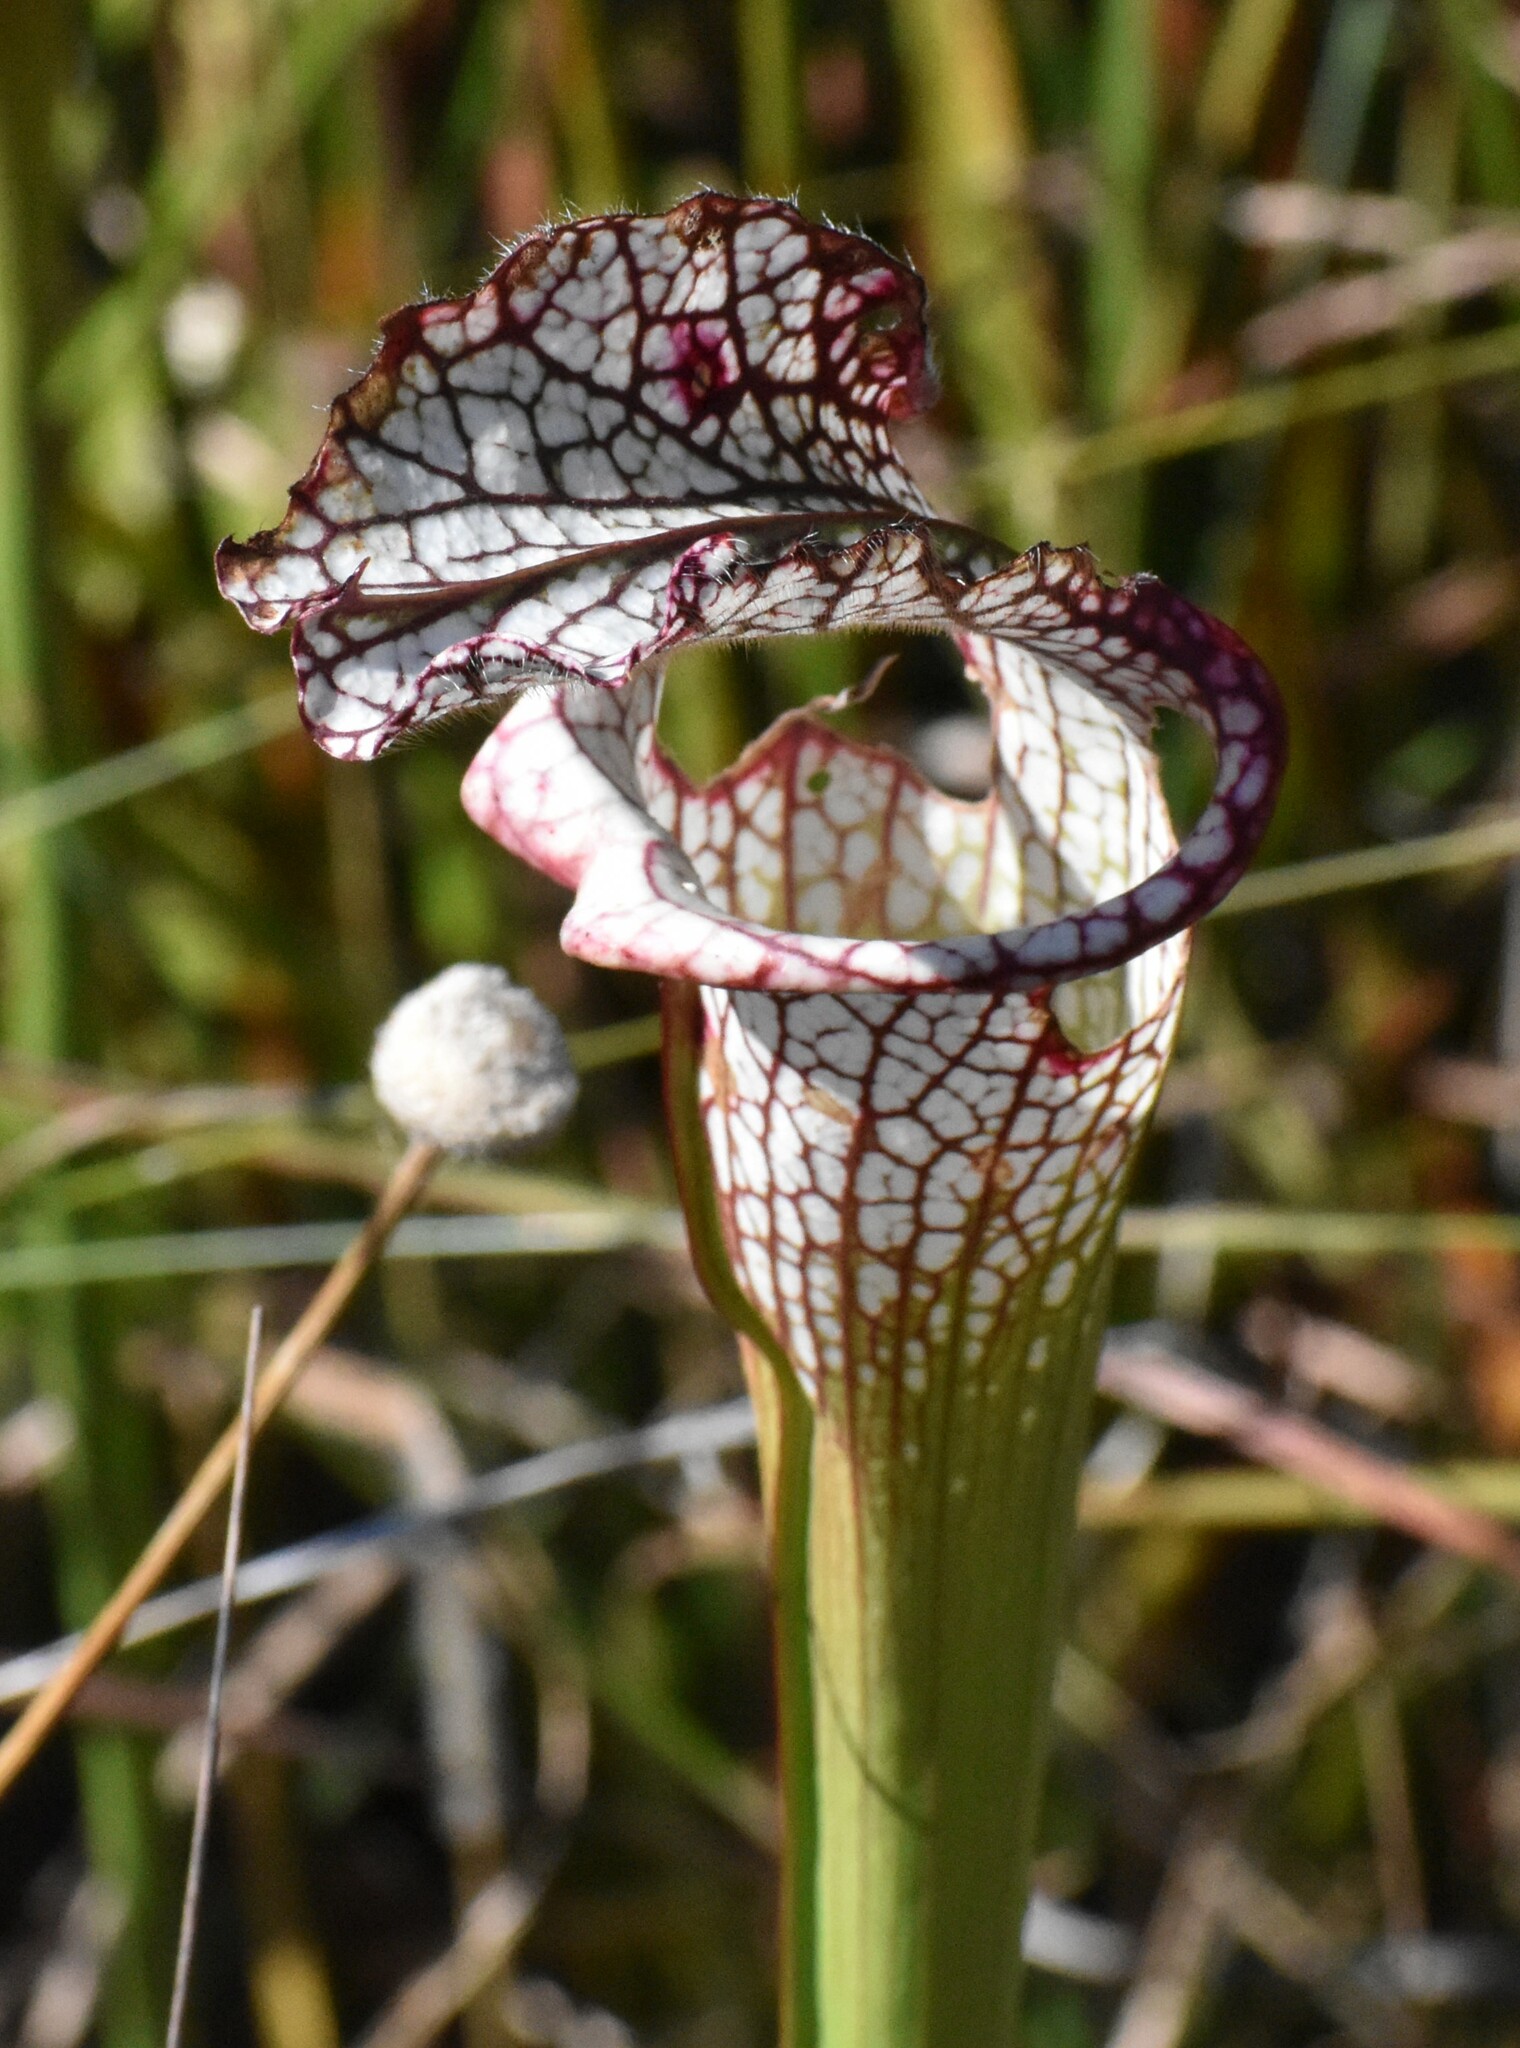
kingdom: Plantae
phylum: Tracheophyta
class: Magnoliopsida
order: Ericales
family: Sarraceniaceae
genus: Sarracenia
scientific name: Sarracenia leucophylla
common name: Purple trumpetleaf
